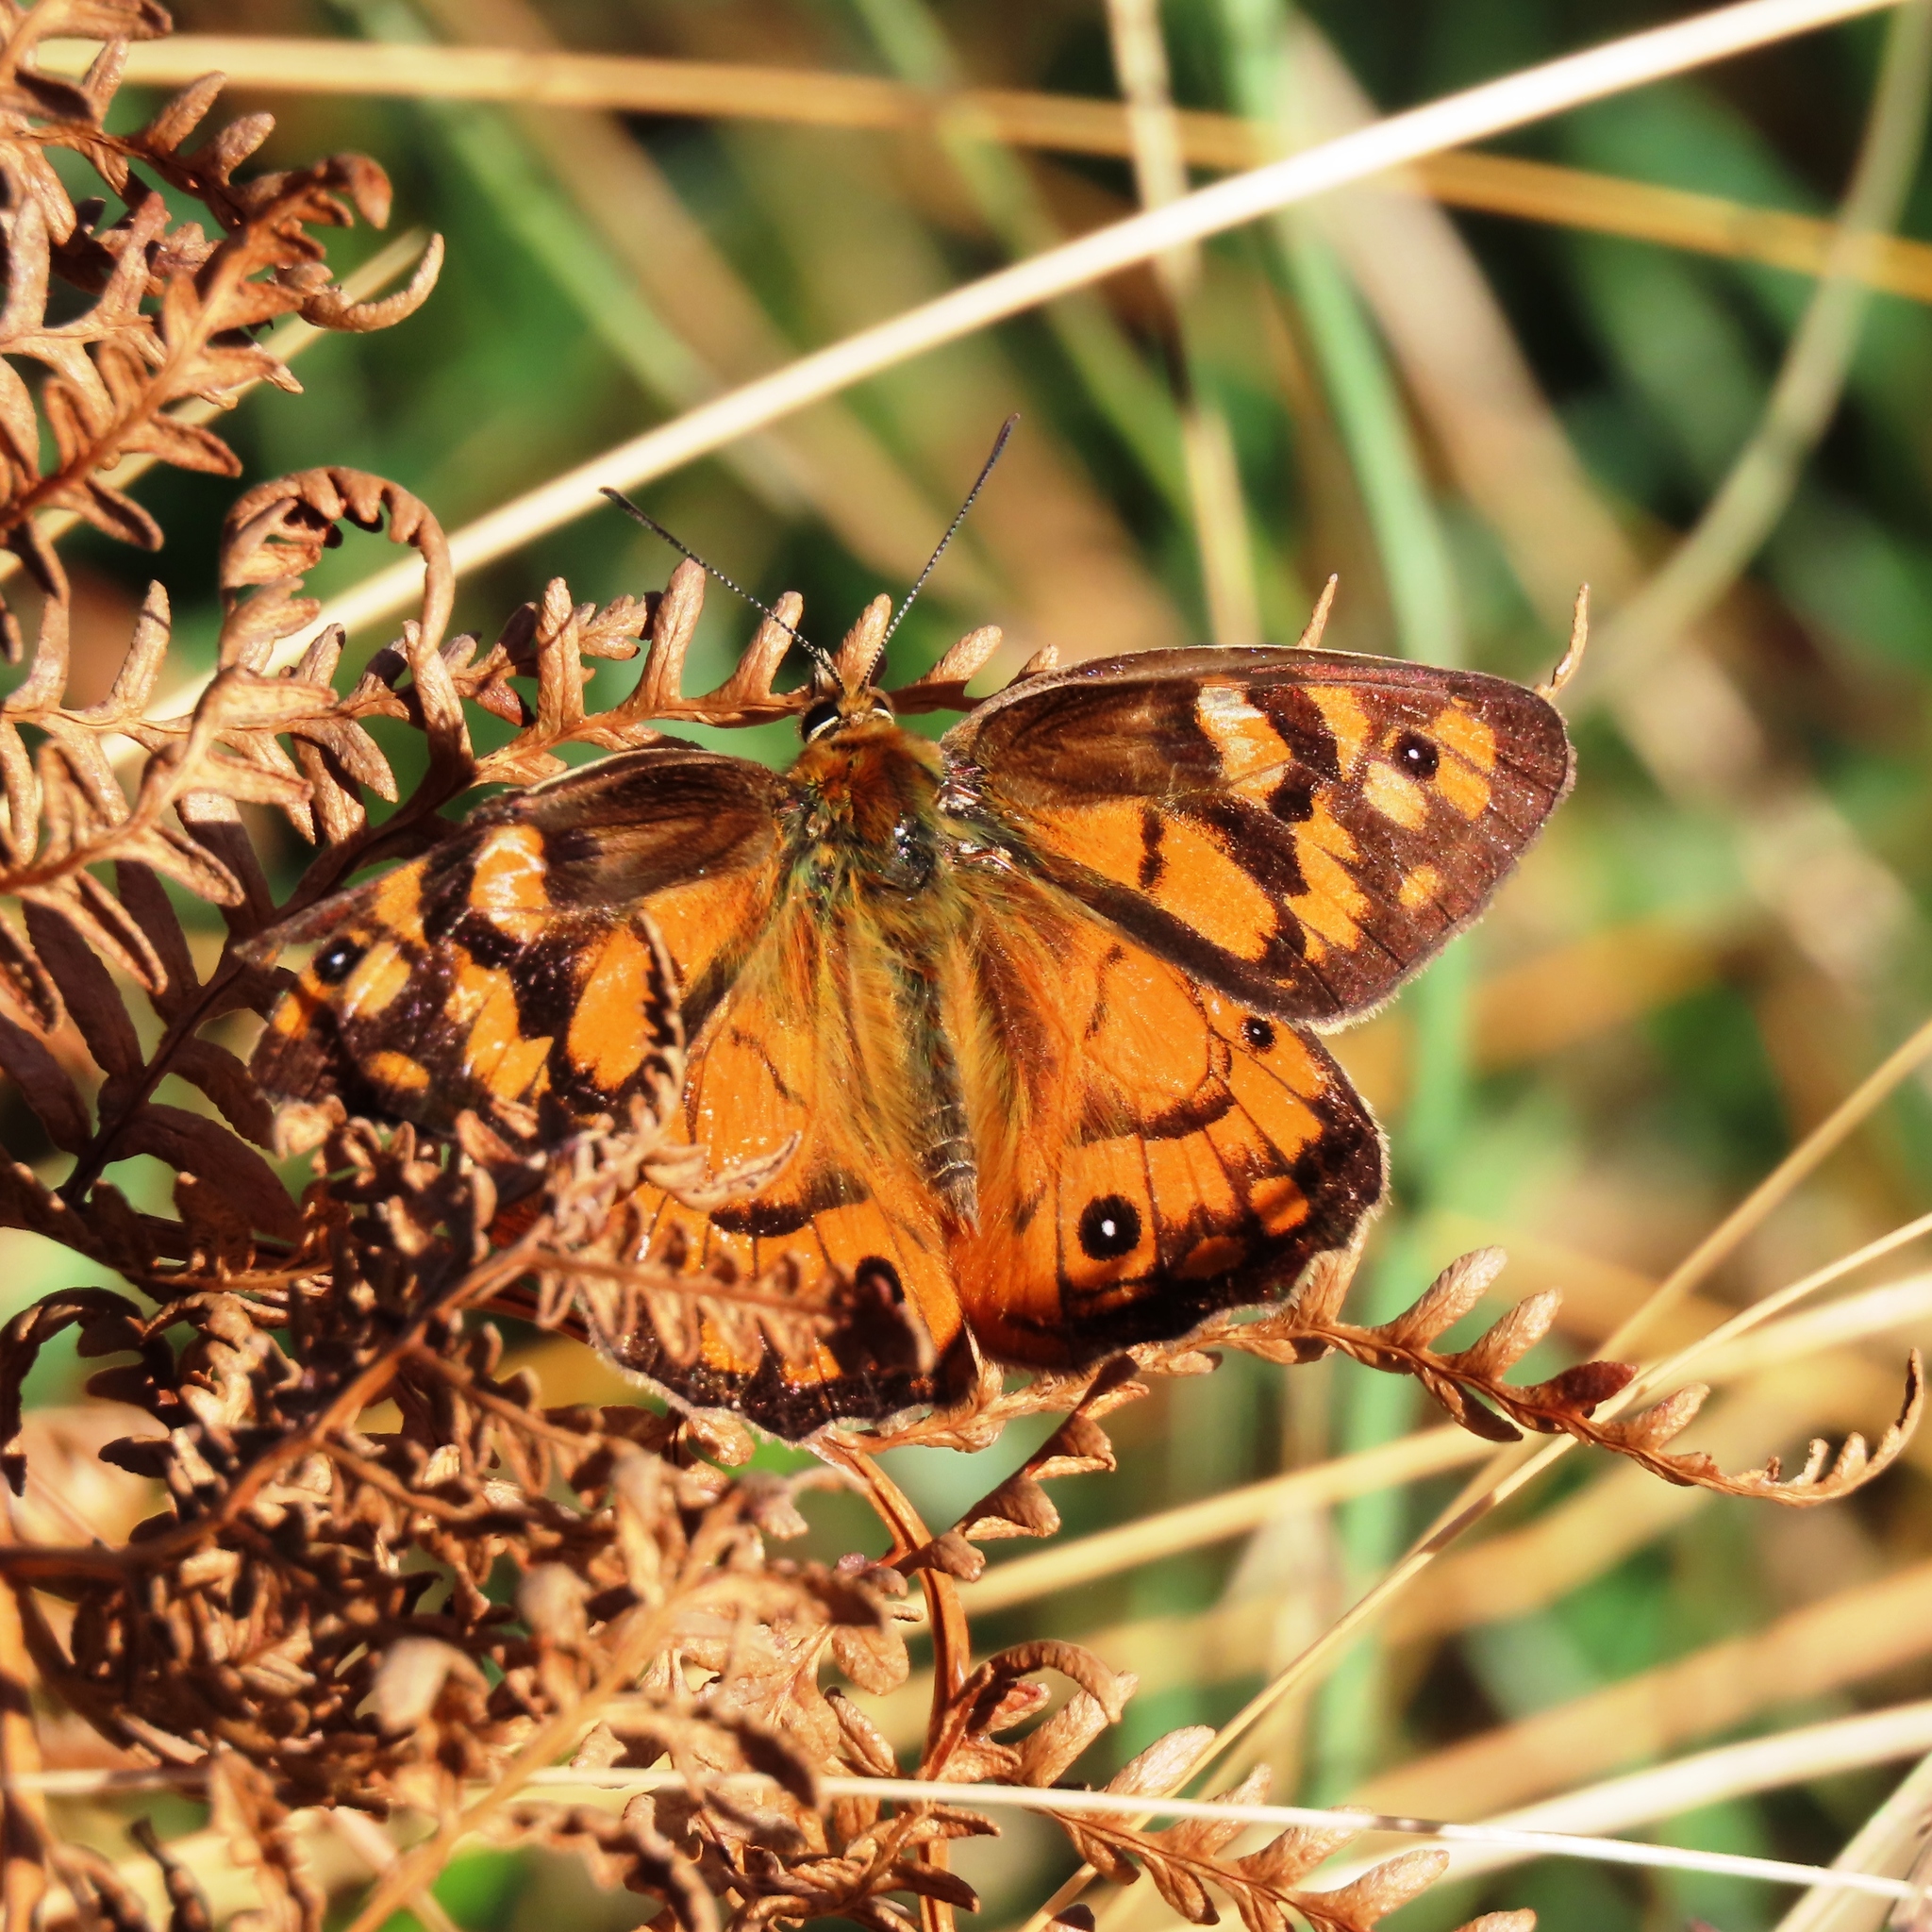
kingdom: Animalia
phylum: Arthropoda
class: Insecta
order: Lepidoptera
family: Nymphalidae
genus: Heteronympha
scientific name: Heteronympha penelope
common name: Shouldered brown
